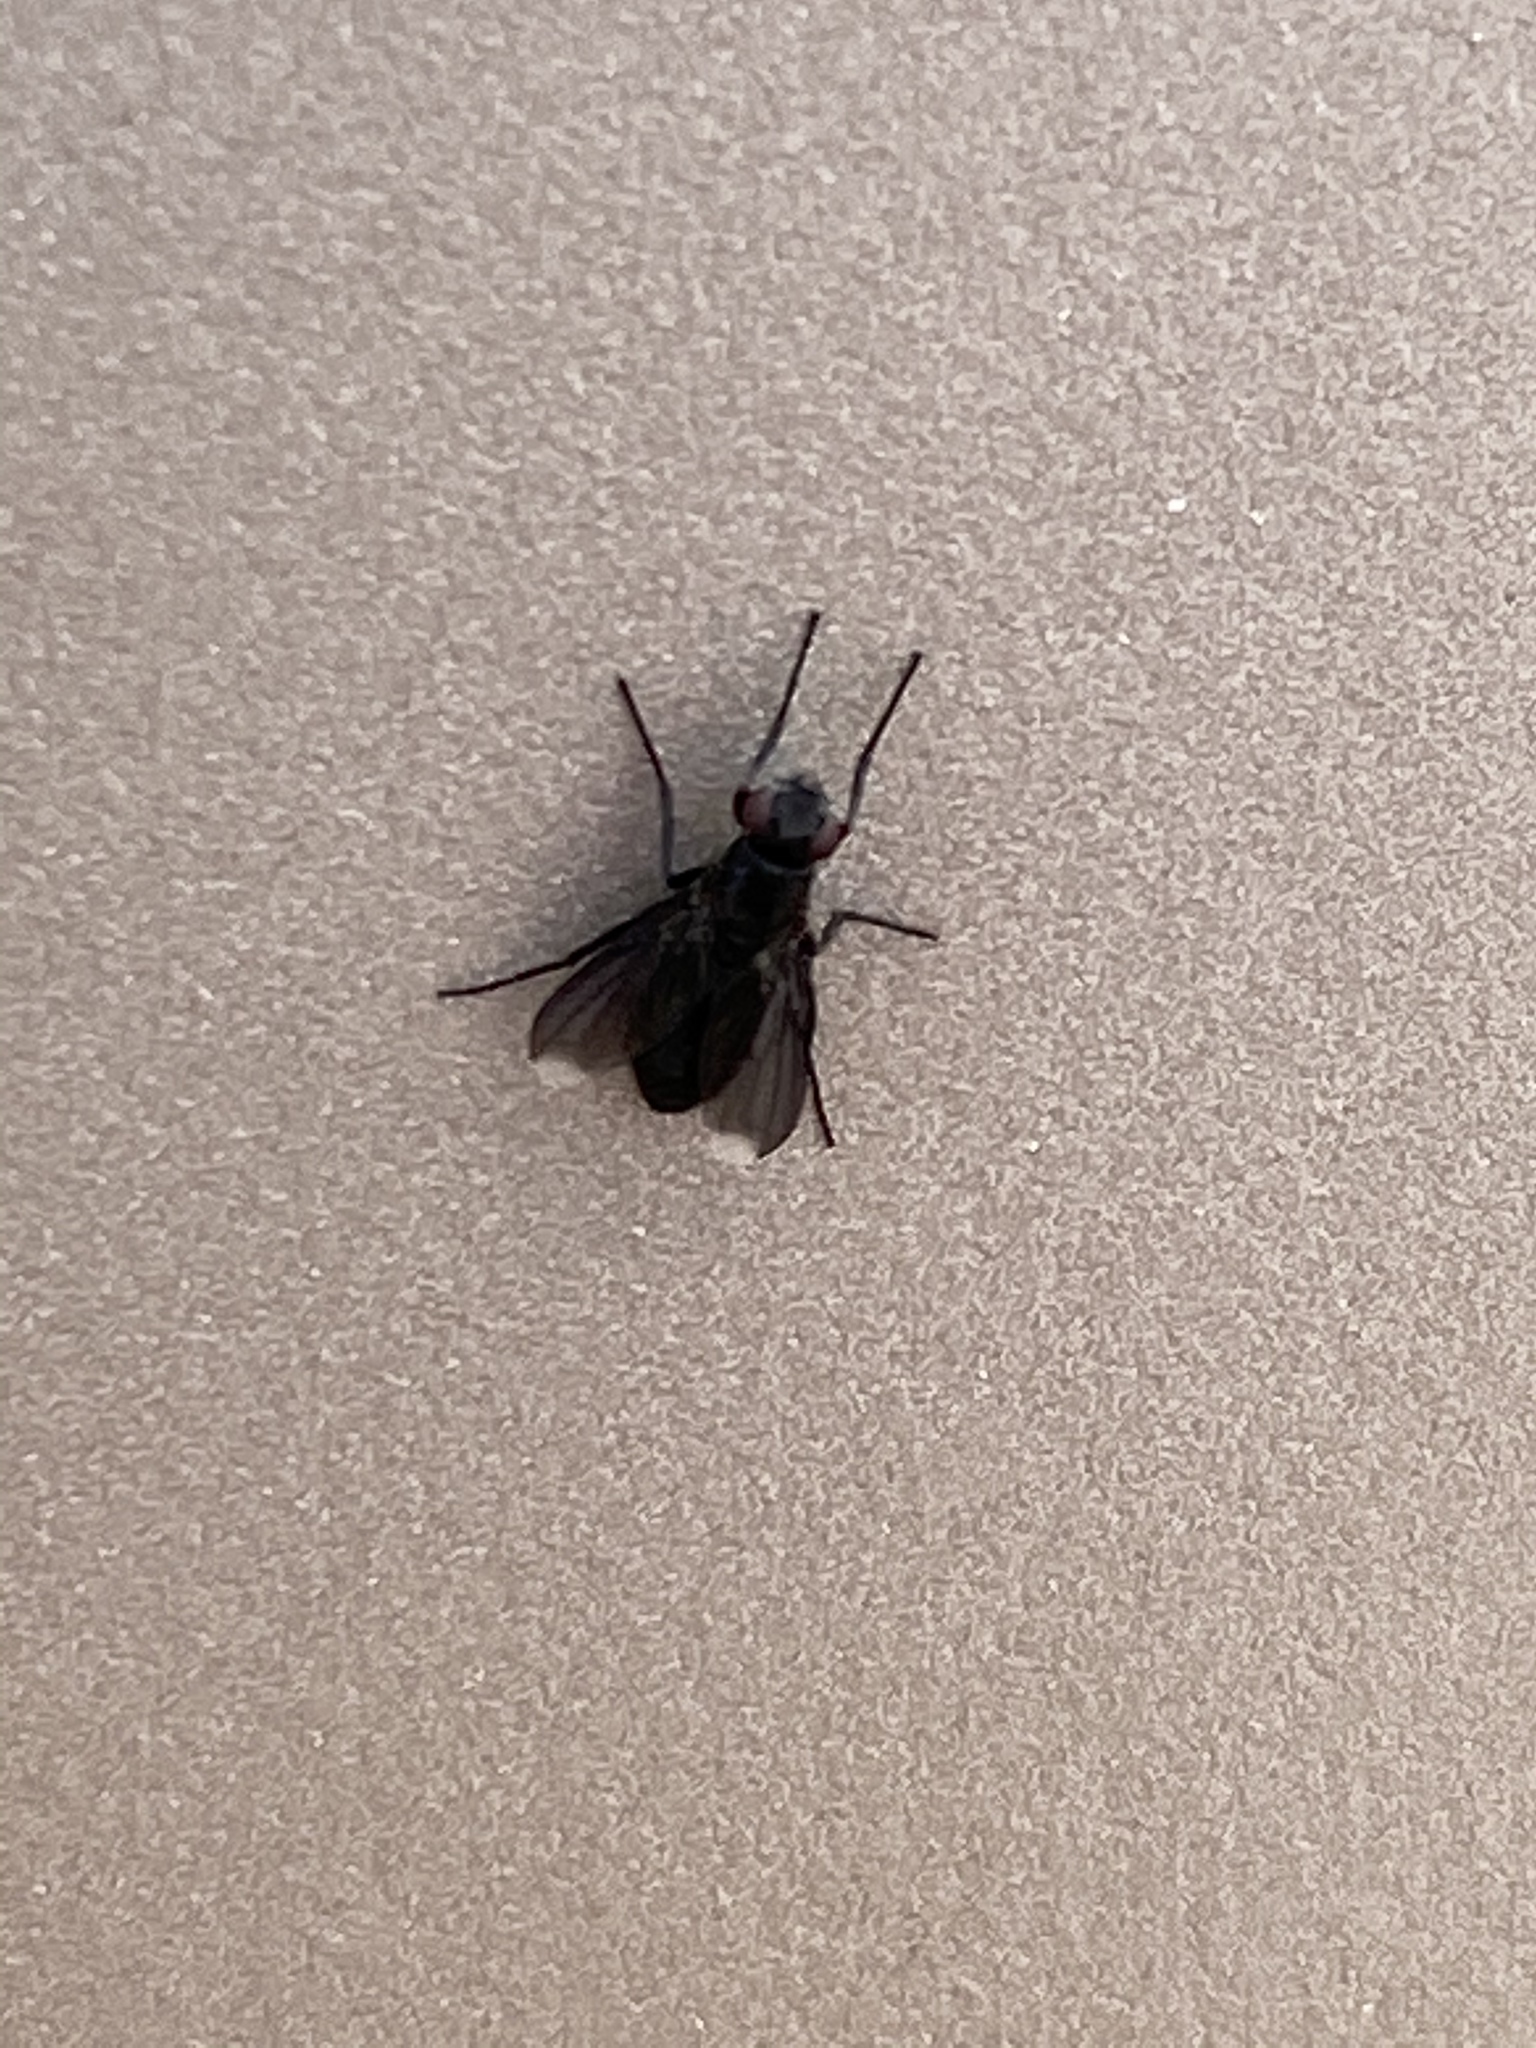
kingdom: Animalia
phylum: Arthropoda
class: Insecta
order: Diptera
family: Calliphoridae
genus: Melanophora
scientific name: Melanophora roralis
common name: Smoky-winged woodlouse-fly
